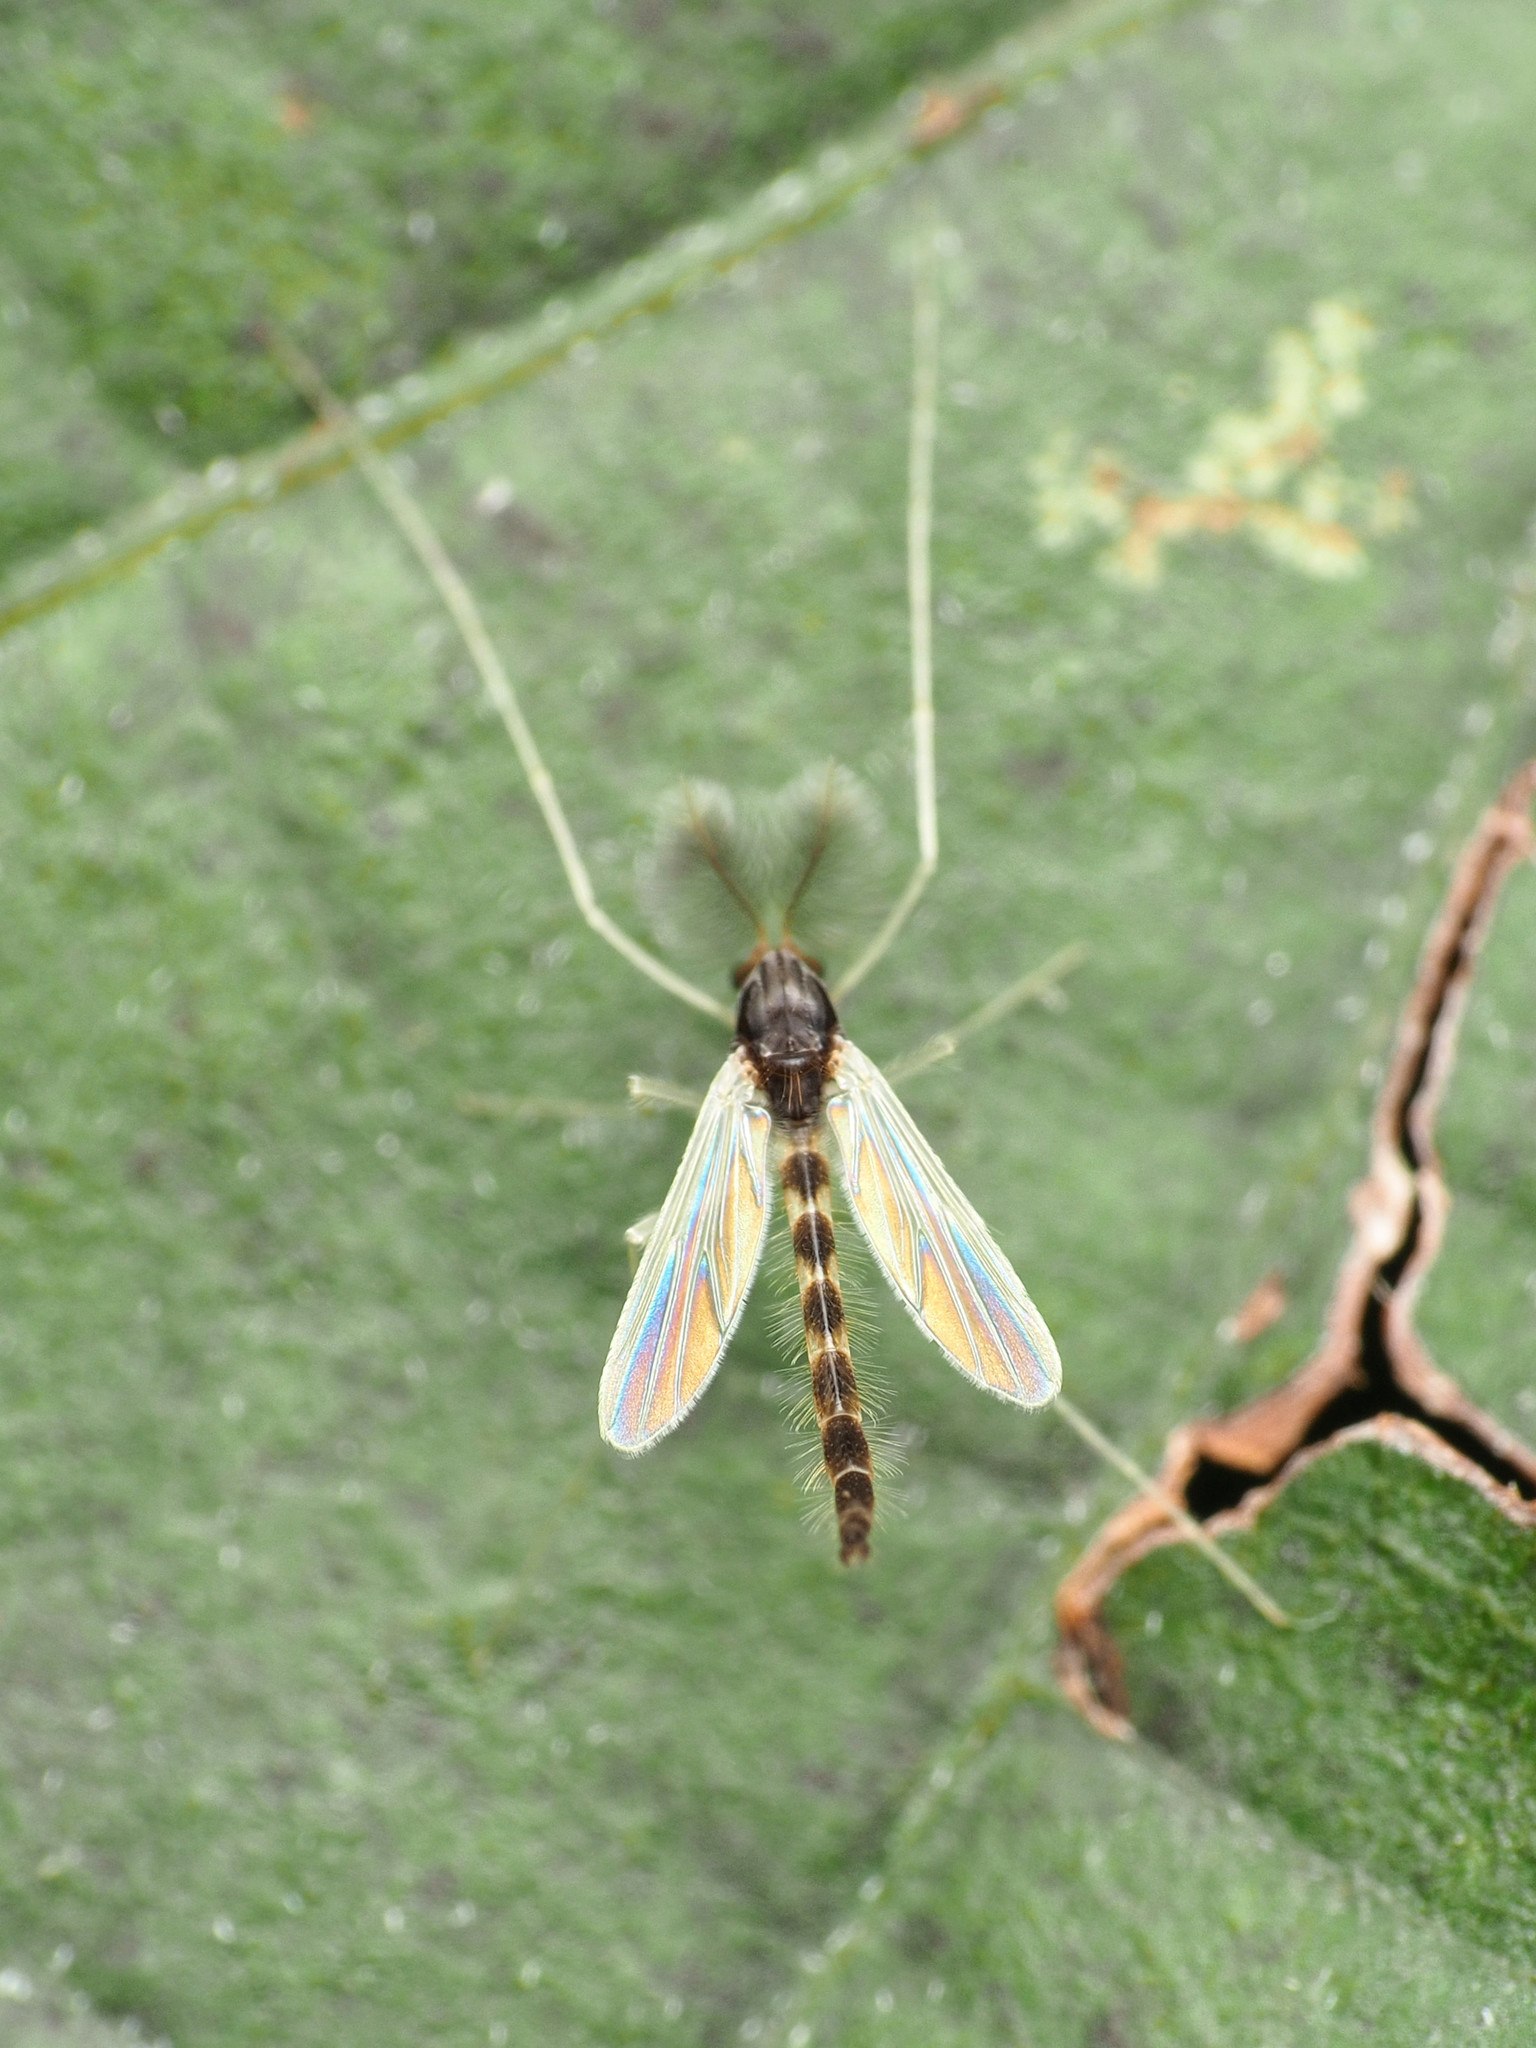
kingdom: Animalia
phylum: Arthropoda
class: Insecta
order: Diptera
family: Chironomidae
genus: Phaenopsectra
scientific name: Phaenopsectra obediens
